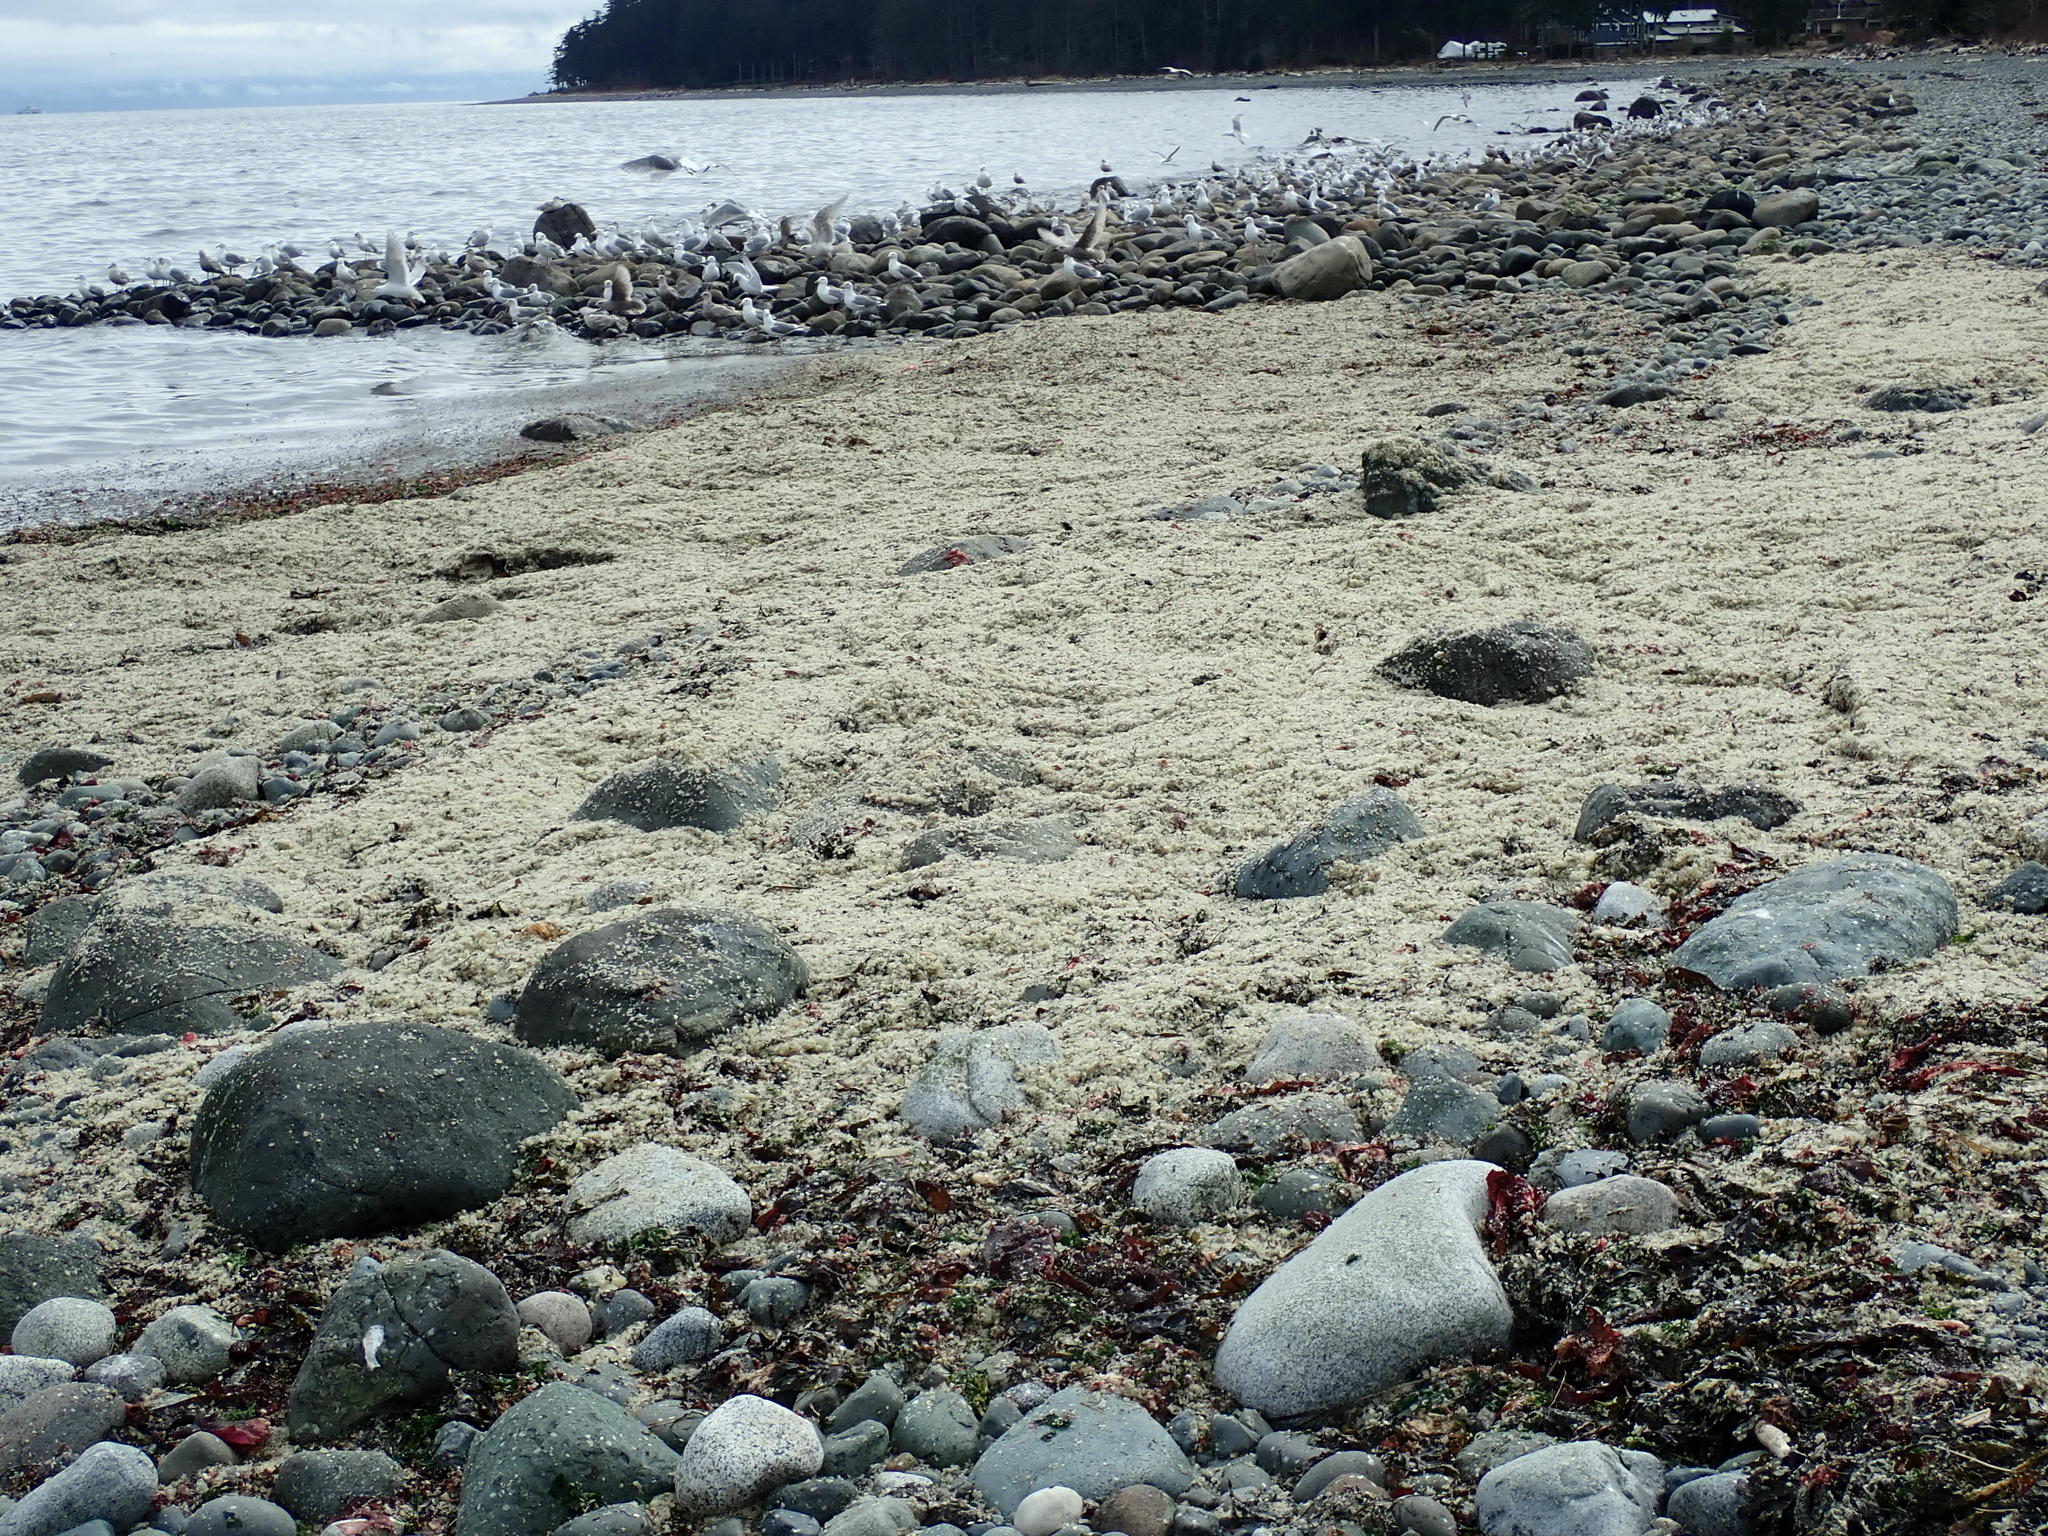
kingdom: Animalia
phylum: Chordata
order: Clupeiformes
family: Clupeidae
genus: Clupea
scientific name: Clupea pallasii
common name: Pacific herring
